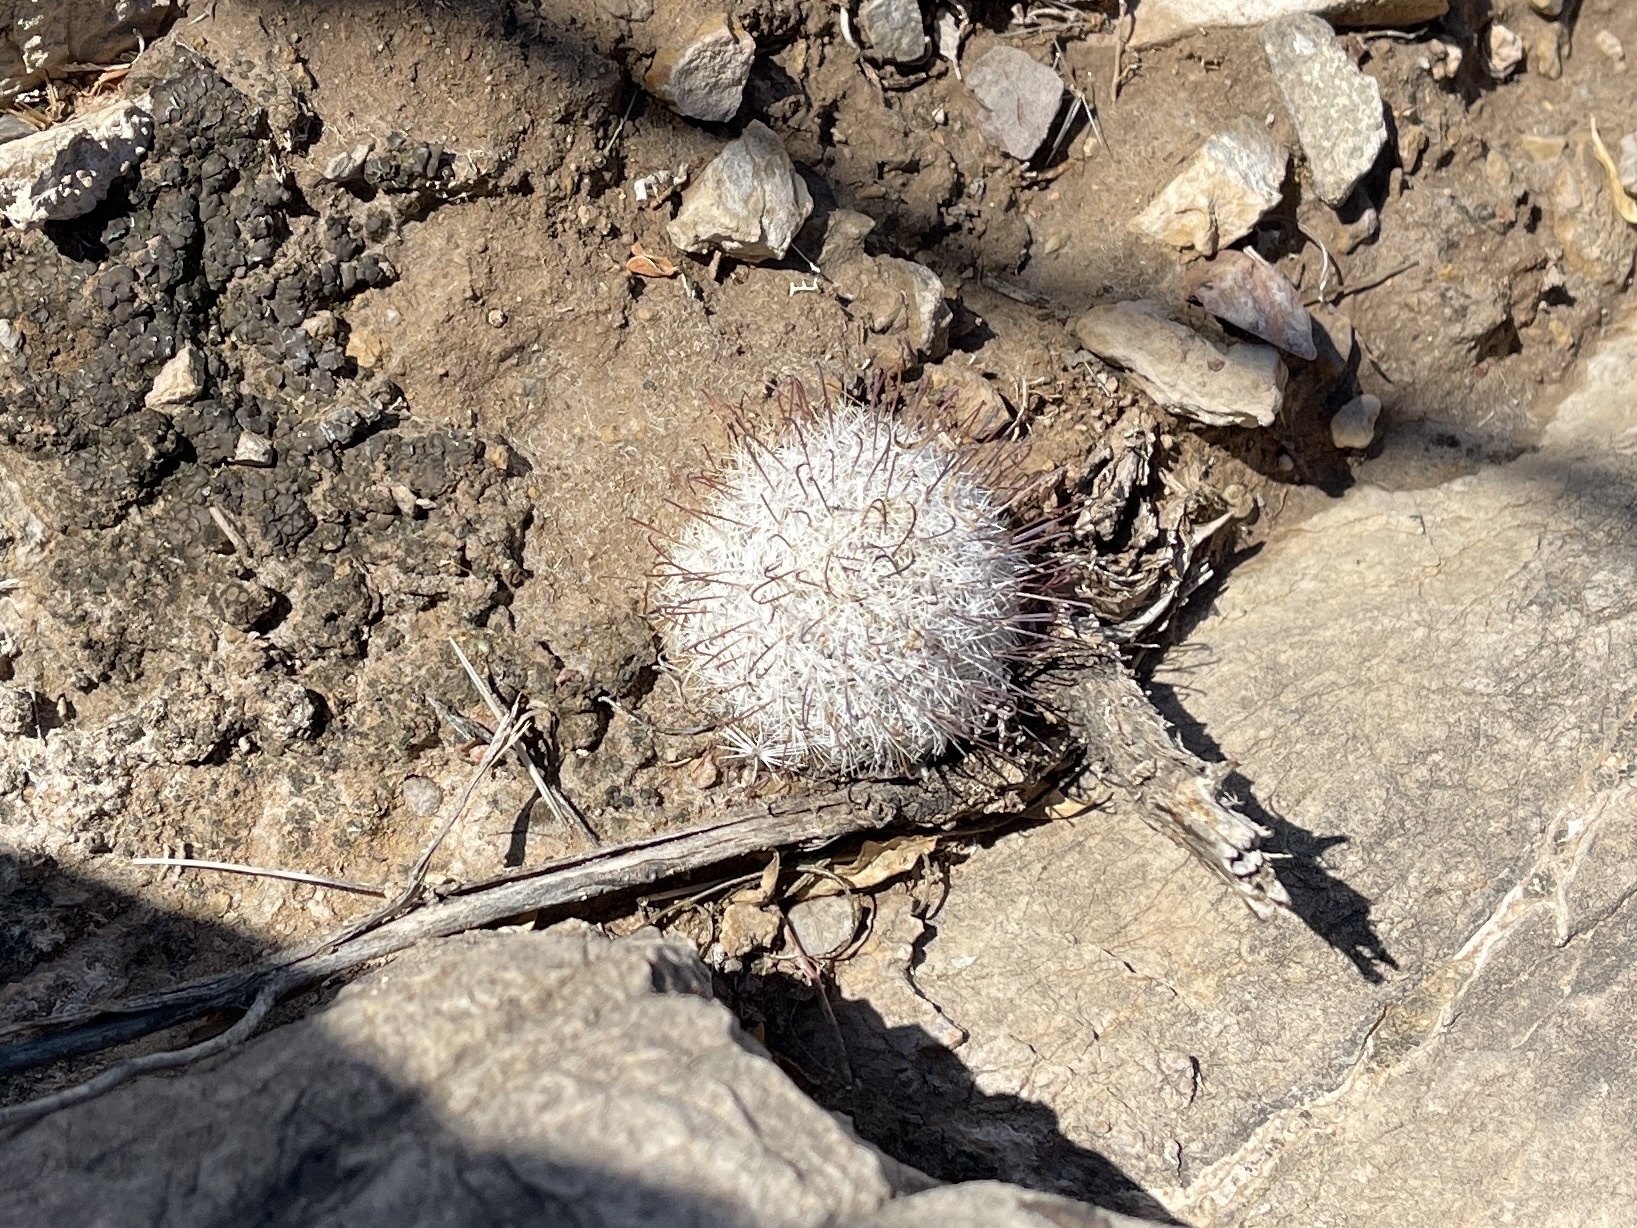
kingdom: Plantae
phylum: Tracheophyta
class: Magnoliopsida
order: Caryophyllales
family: Cactaceae
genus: Cochemiea
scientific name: Cochemiea grahamii
